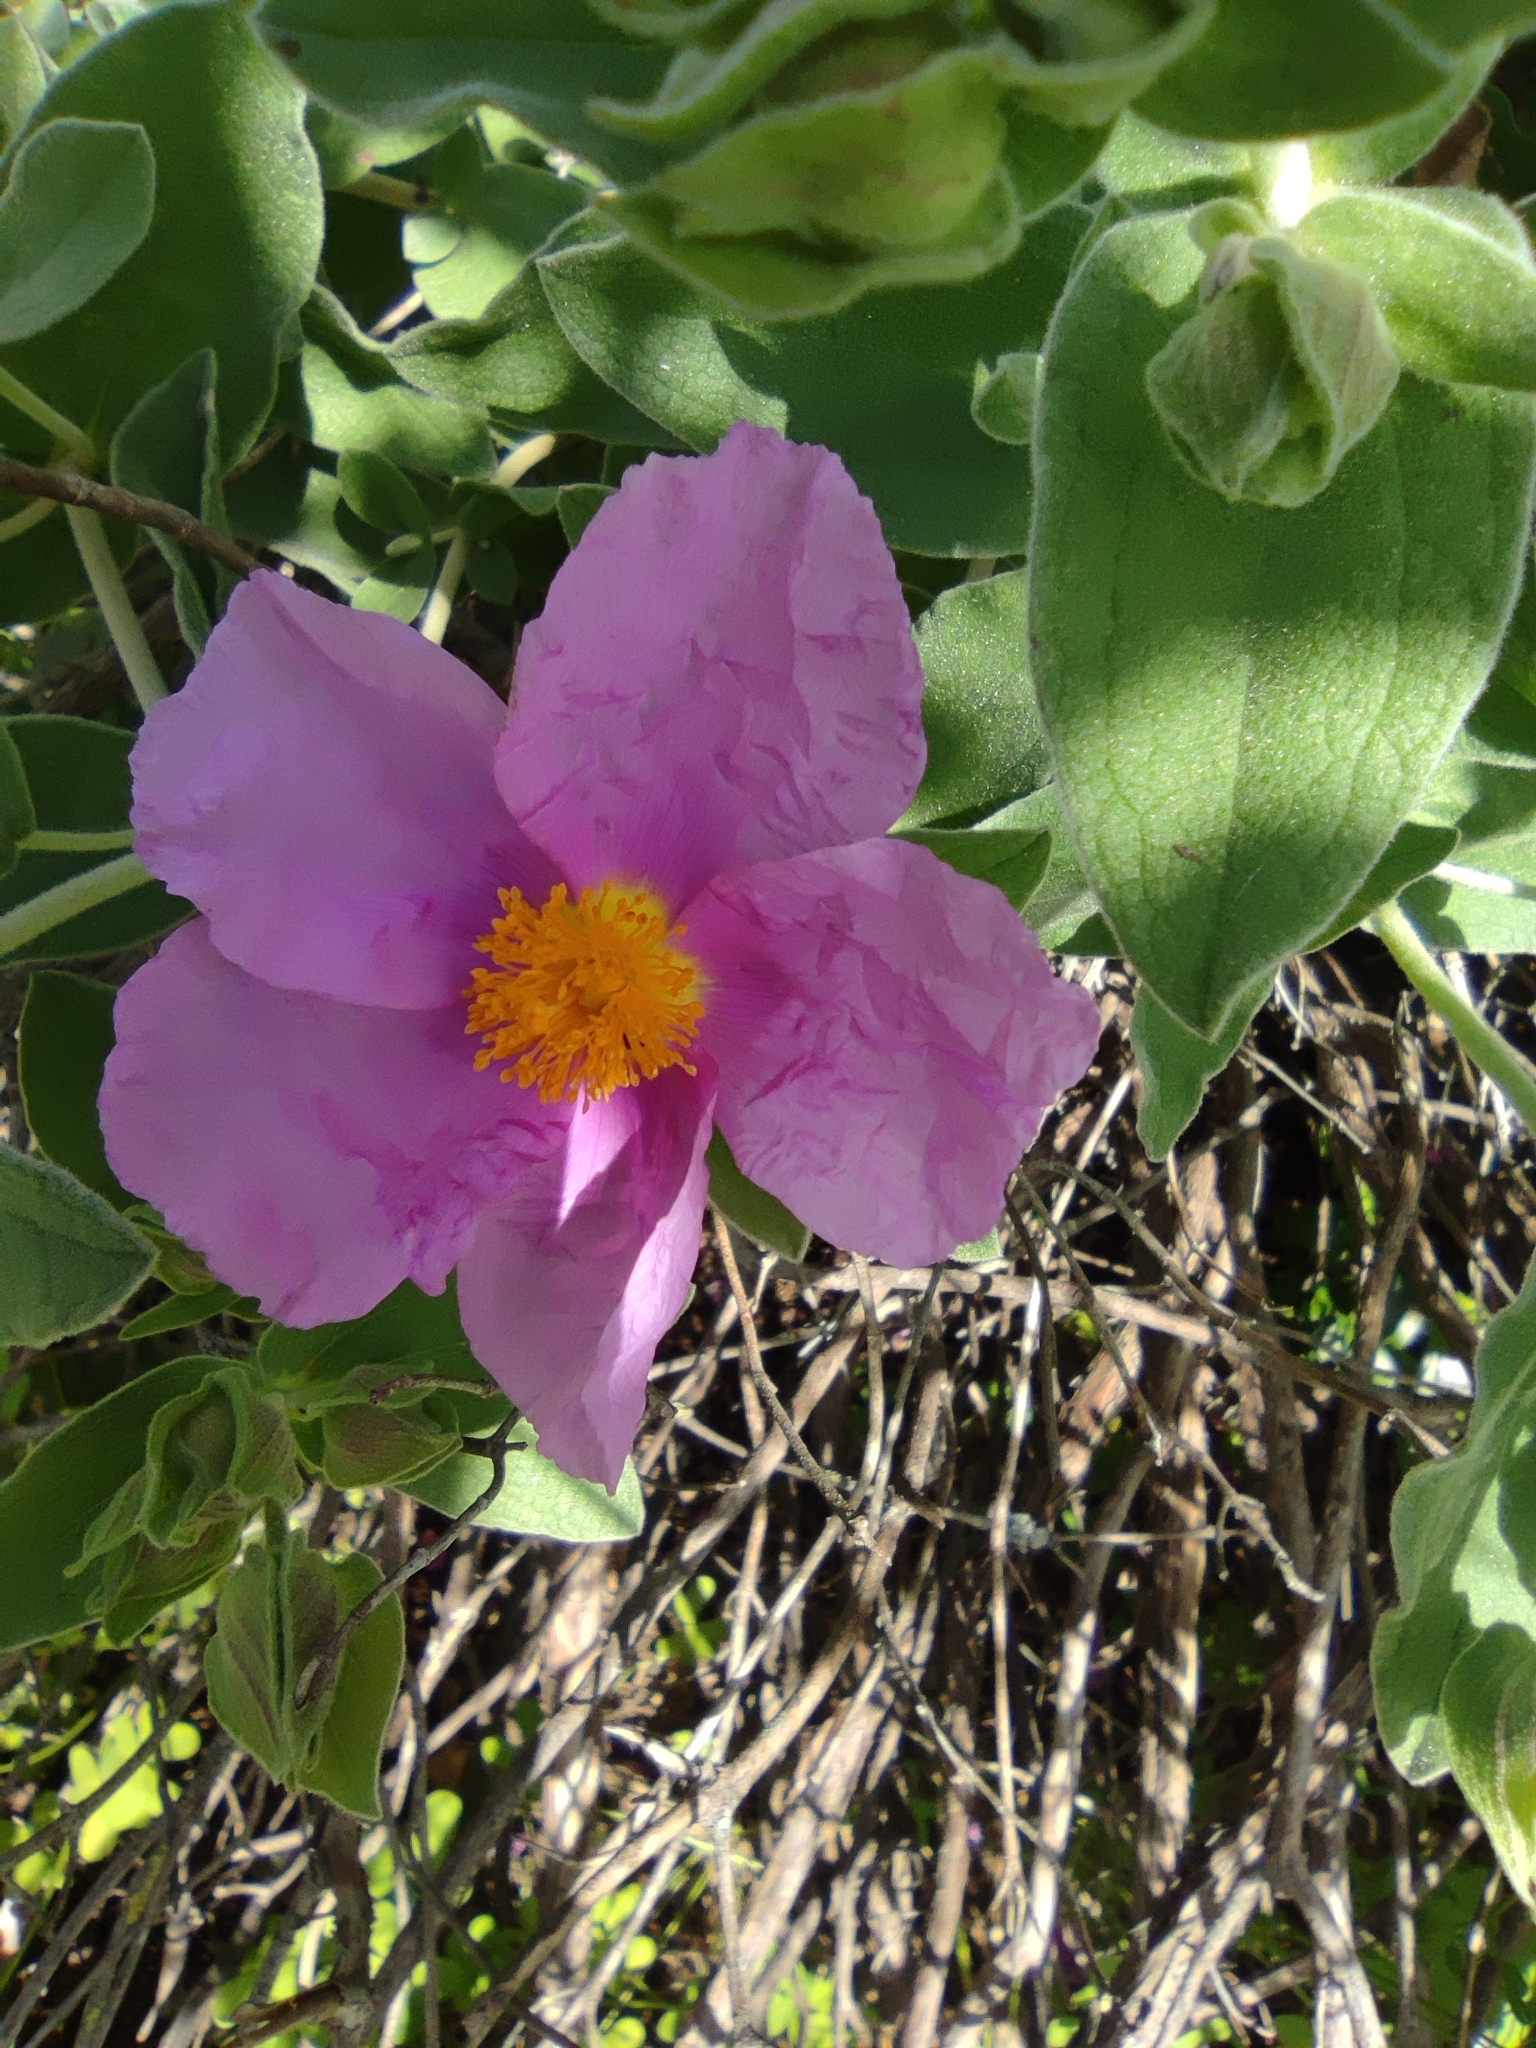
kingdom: Plantae
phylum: Tracheophyta
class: Magnoliopsida
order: Malvales
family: Cistaceae
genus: Cistus
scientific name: Cistus albidus
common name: White-leaf rock-rose
